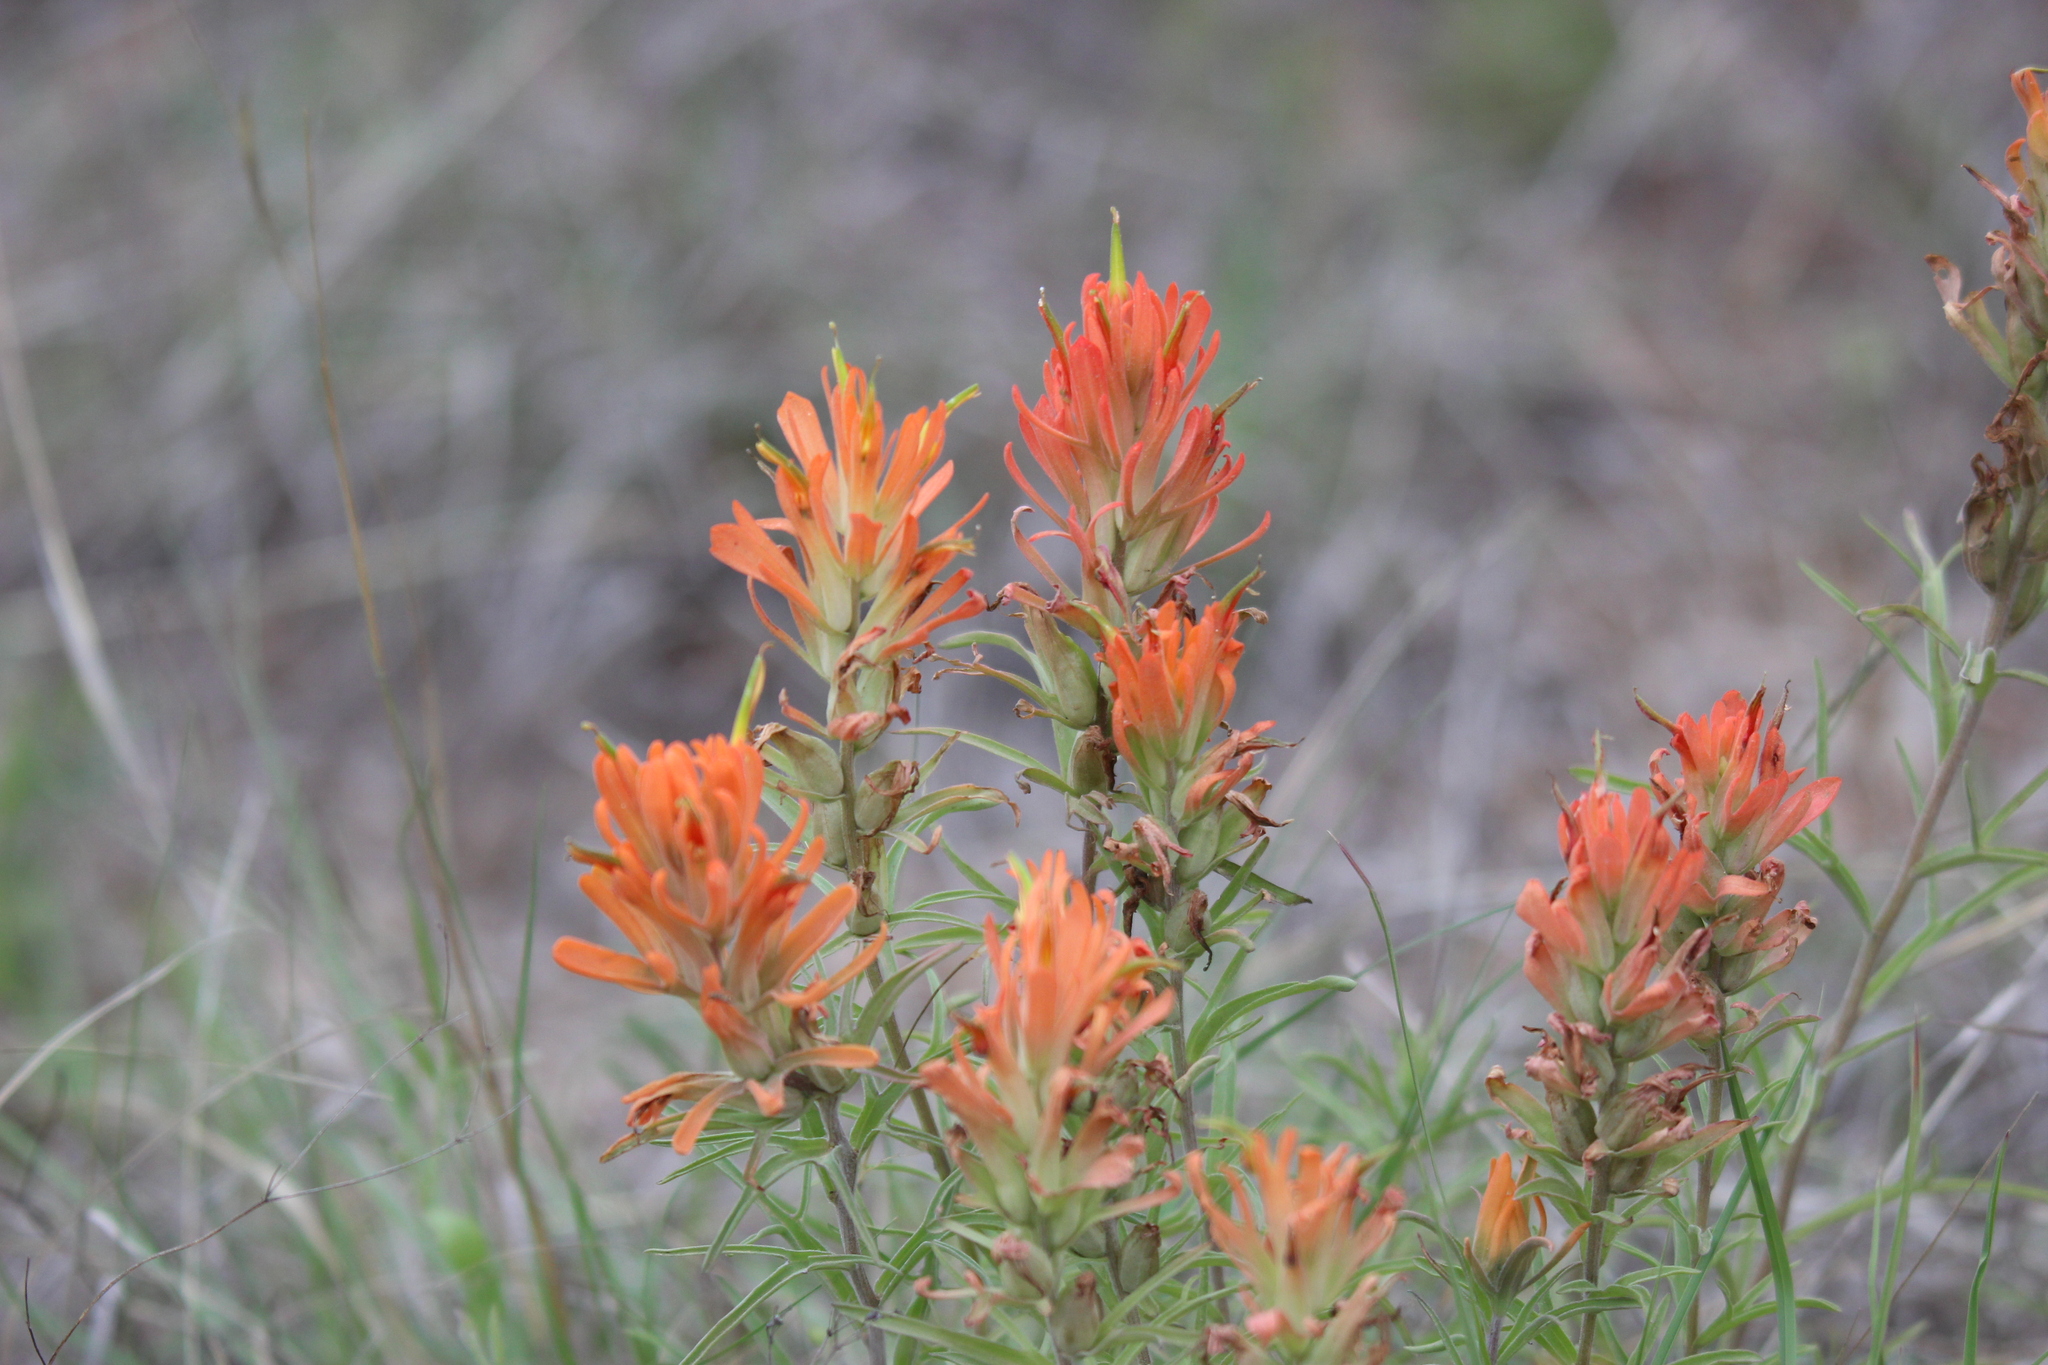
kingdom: Plantae
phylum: Tracheophyta
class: Magnoliopsida
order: Lamiales
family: Orobanchaceae
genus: Castilleja
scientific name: Castilleja lindheimeri
